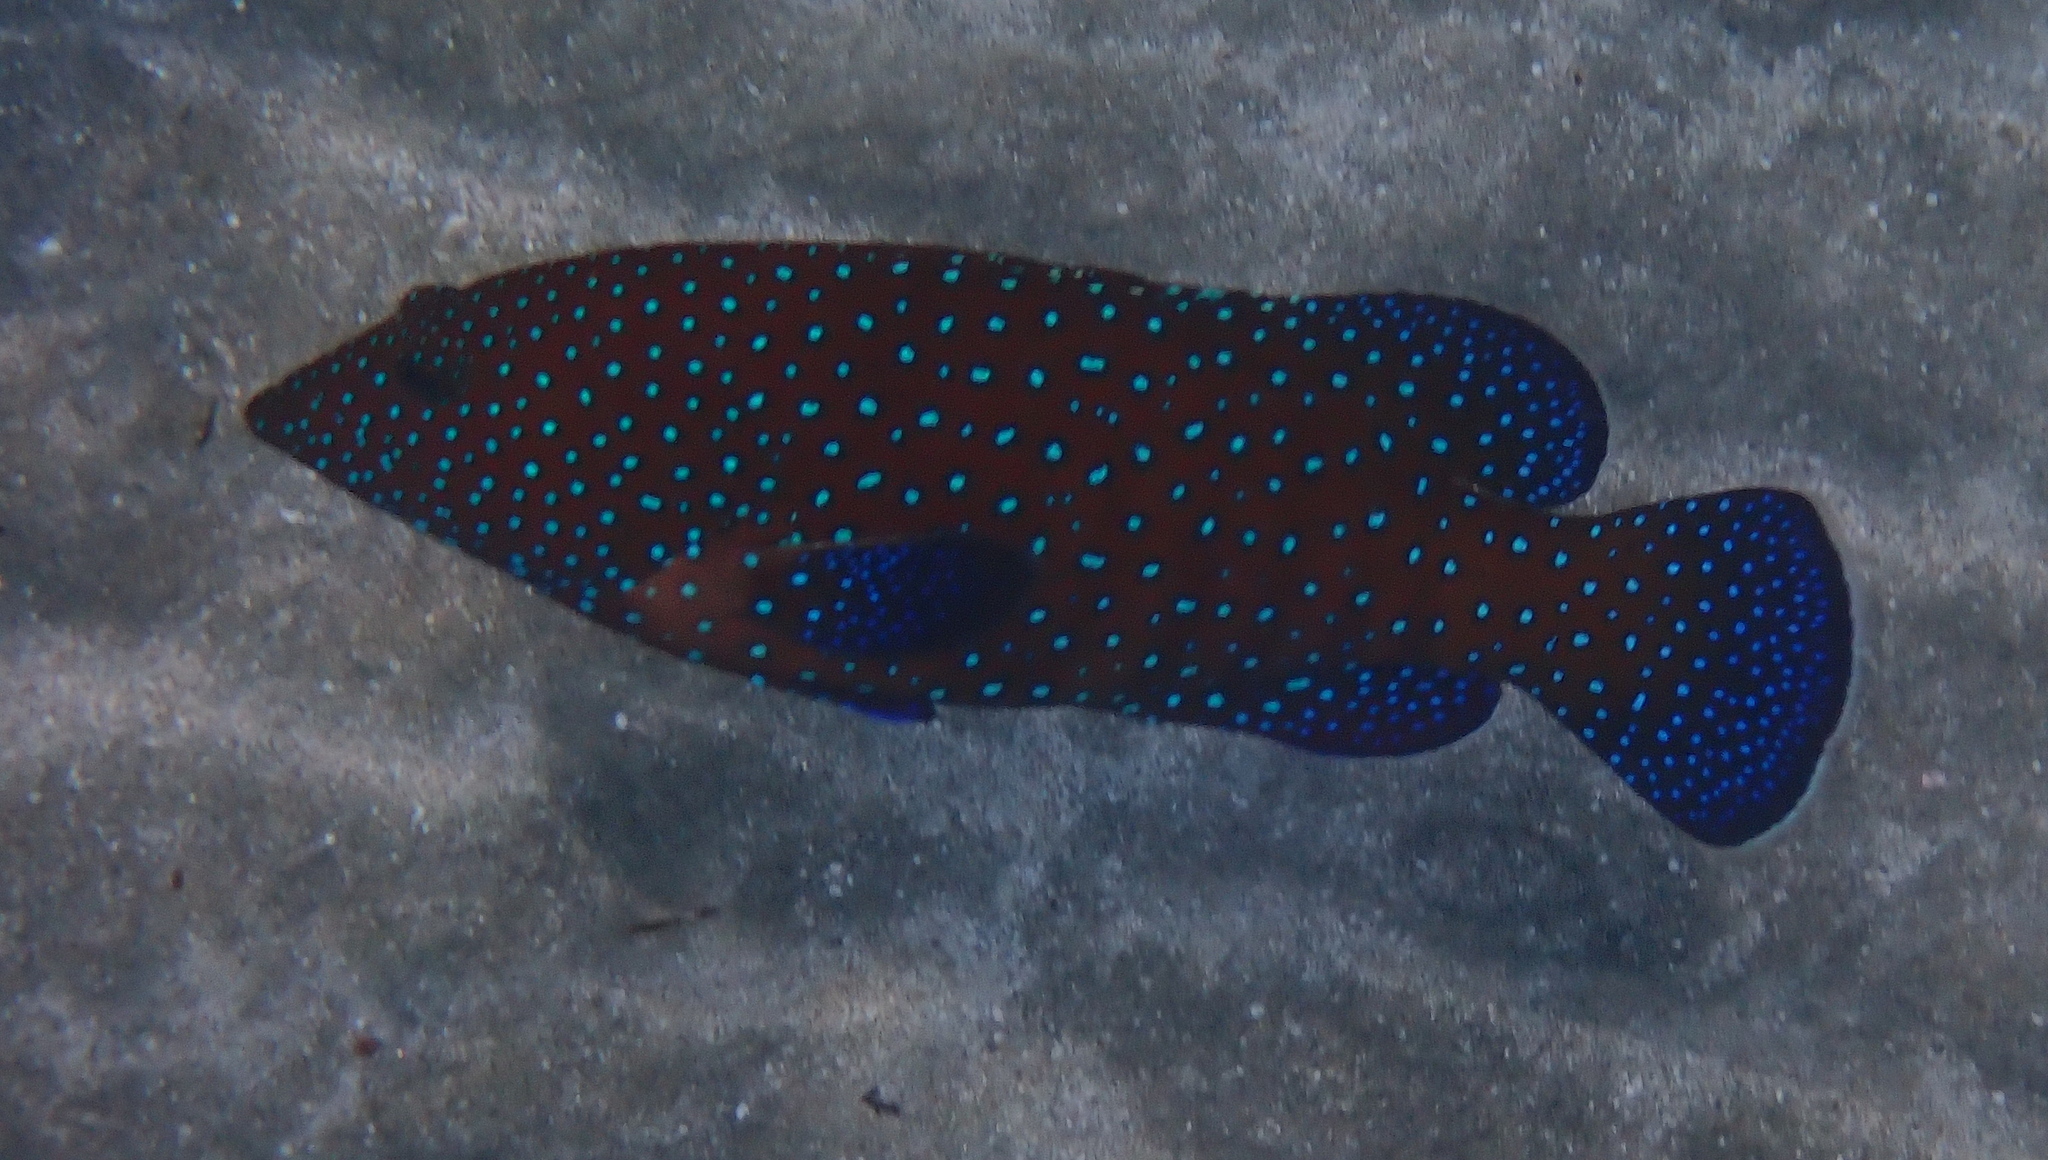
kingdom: Animalia
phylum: Chordata
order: Perciformes
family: Serranidae
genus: Cephalopholis
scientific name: Cephalopholis argus
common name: Peacock grouper
